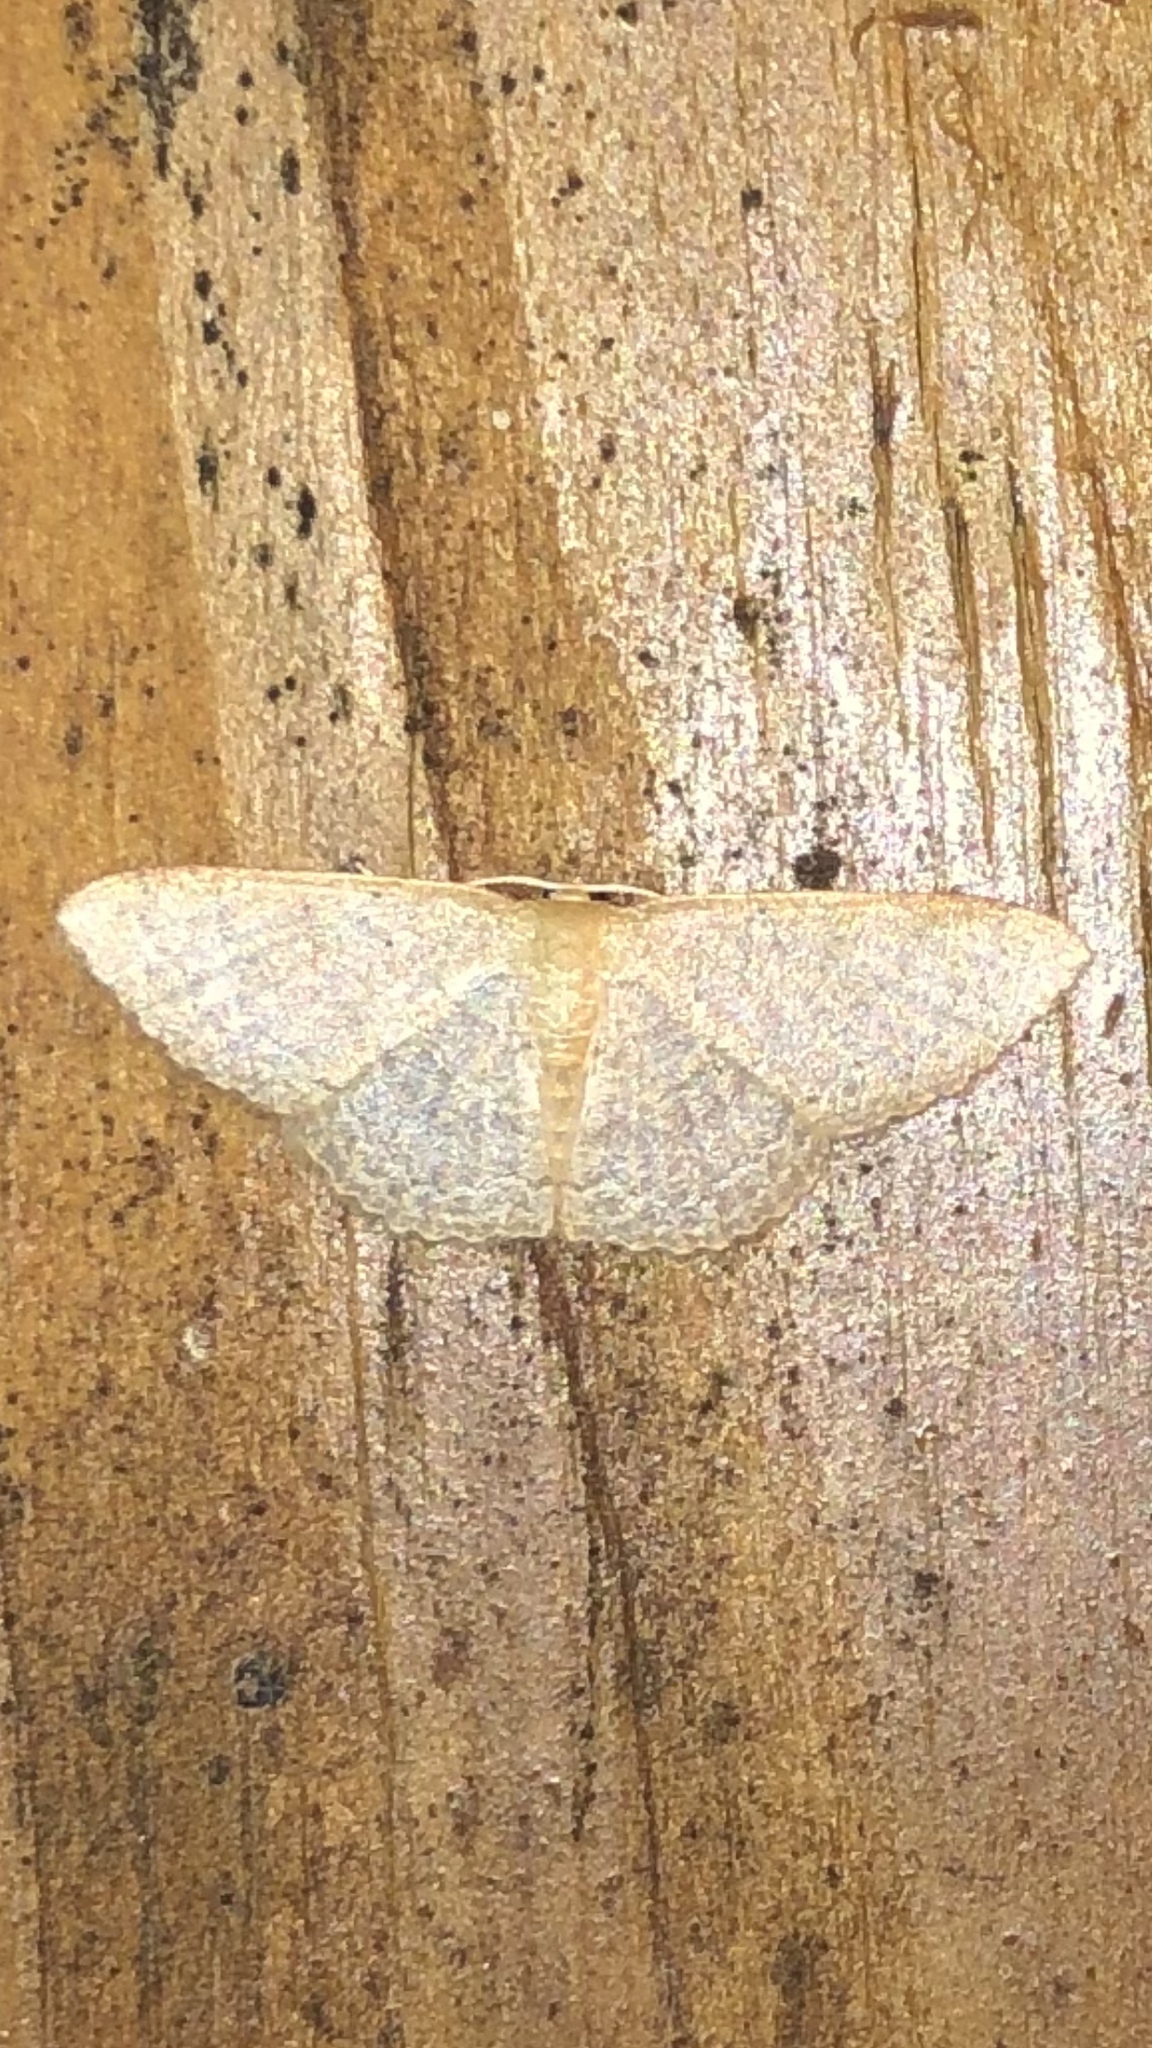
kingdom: Animalia
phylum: Arthropoda
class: Insecta
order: Lepidoptera
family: Geometridae
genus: Pleuroprucha
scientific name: Pleuroprucha insulsaria
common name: Common tan wave
